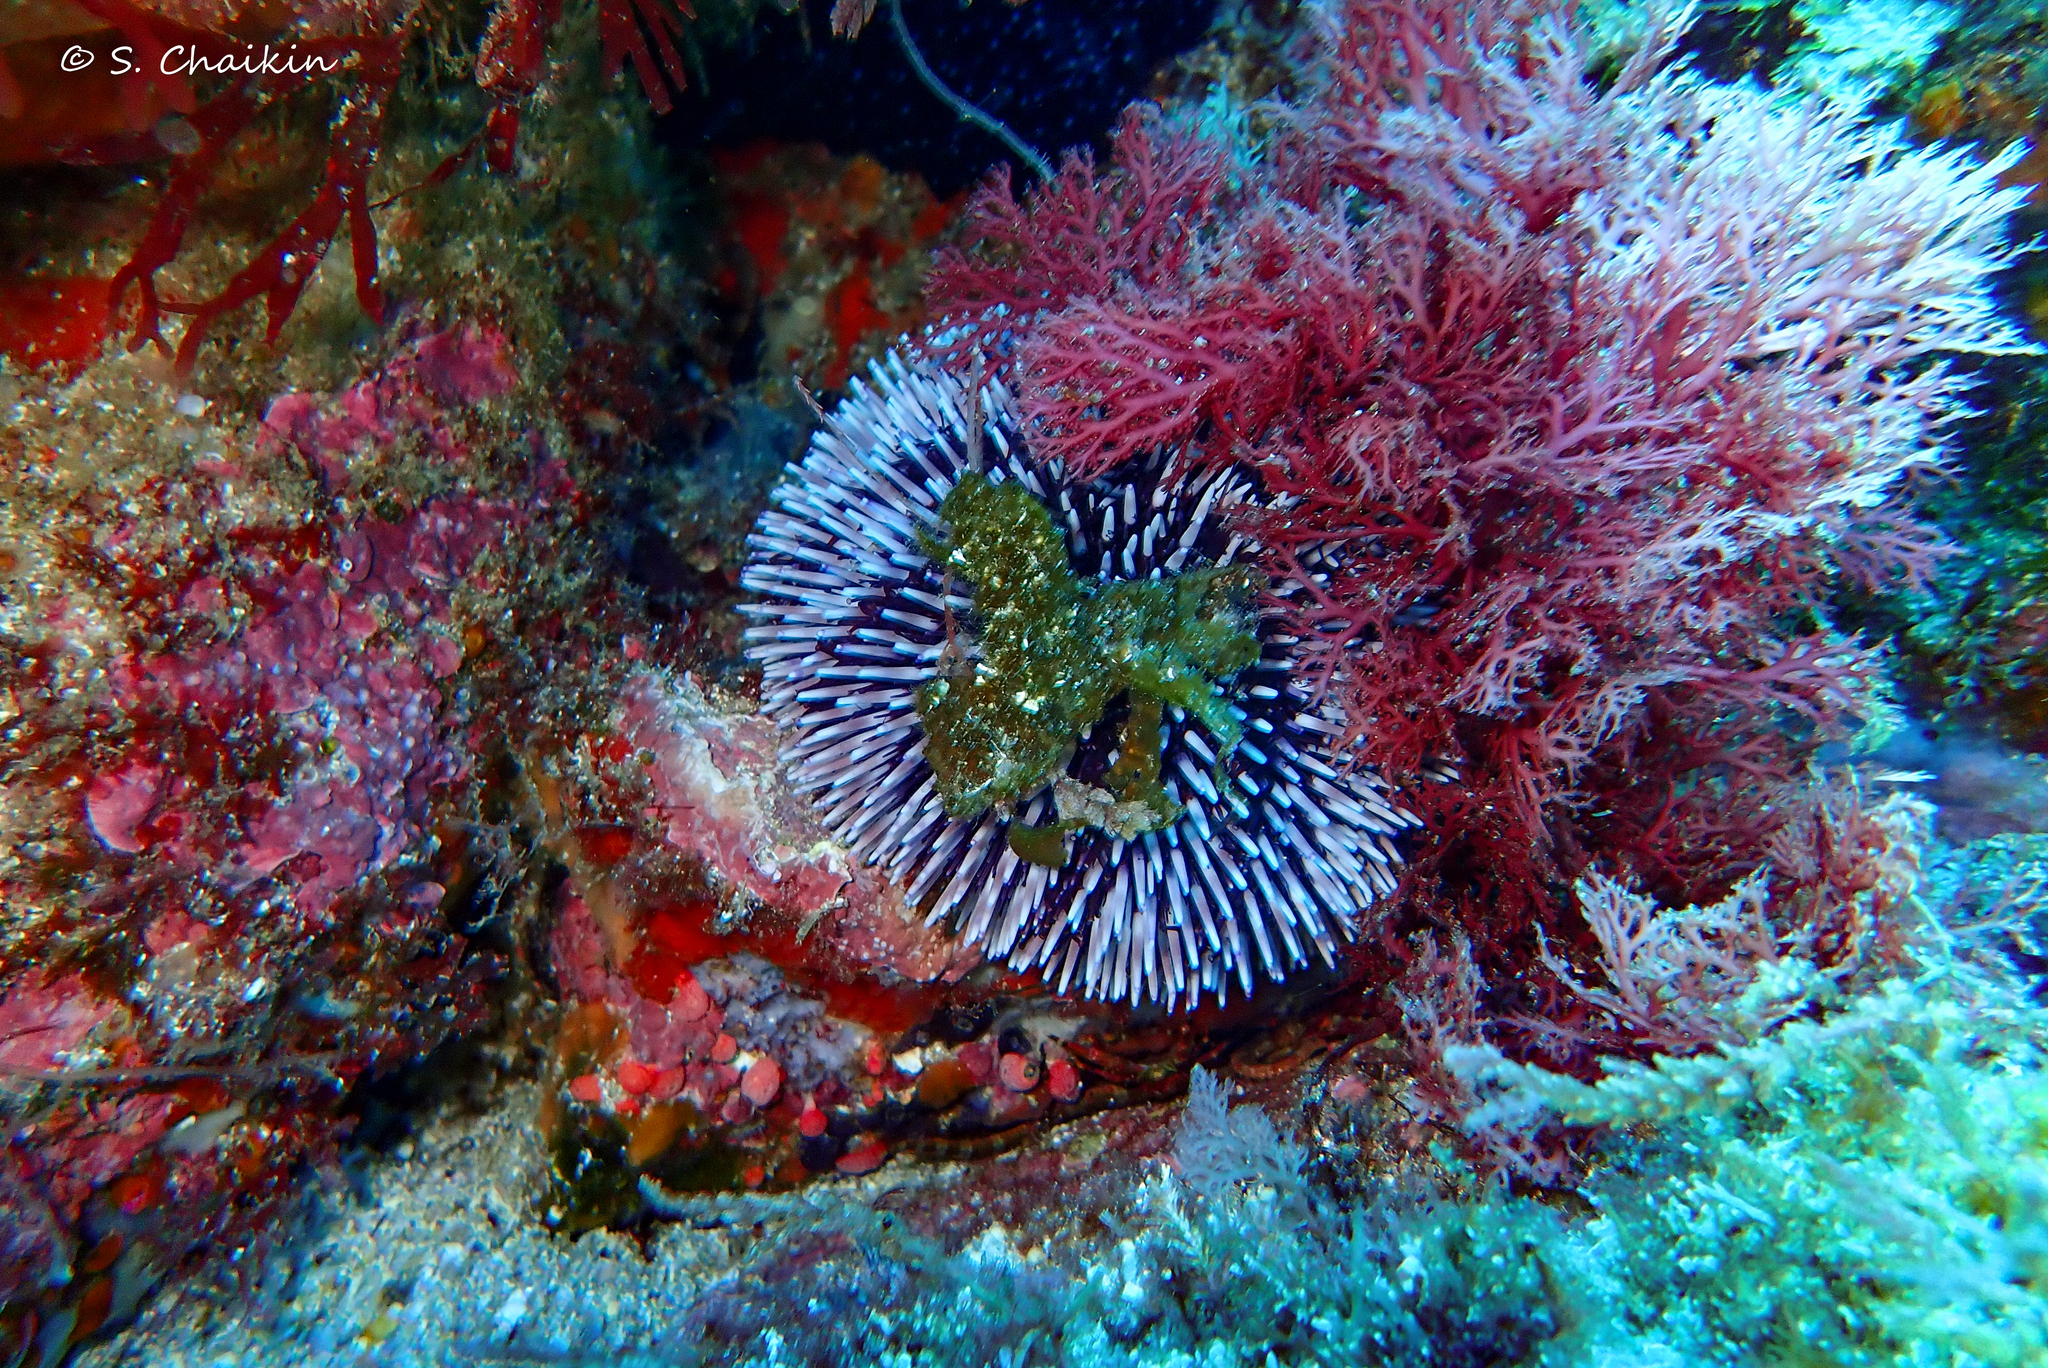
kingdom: Animalia
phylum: Echinodermata
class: Echinoidea
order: Camarodonta
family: Toxopneustidae
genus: Sphaerechinus
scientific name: Sphaerechinus granularis
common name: Violet sea urchin
